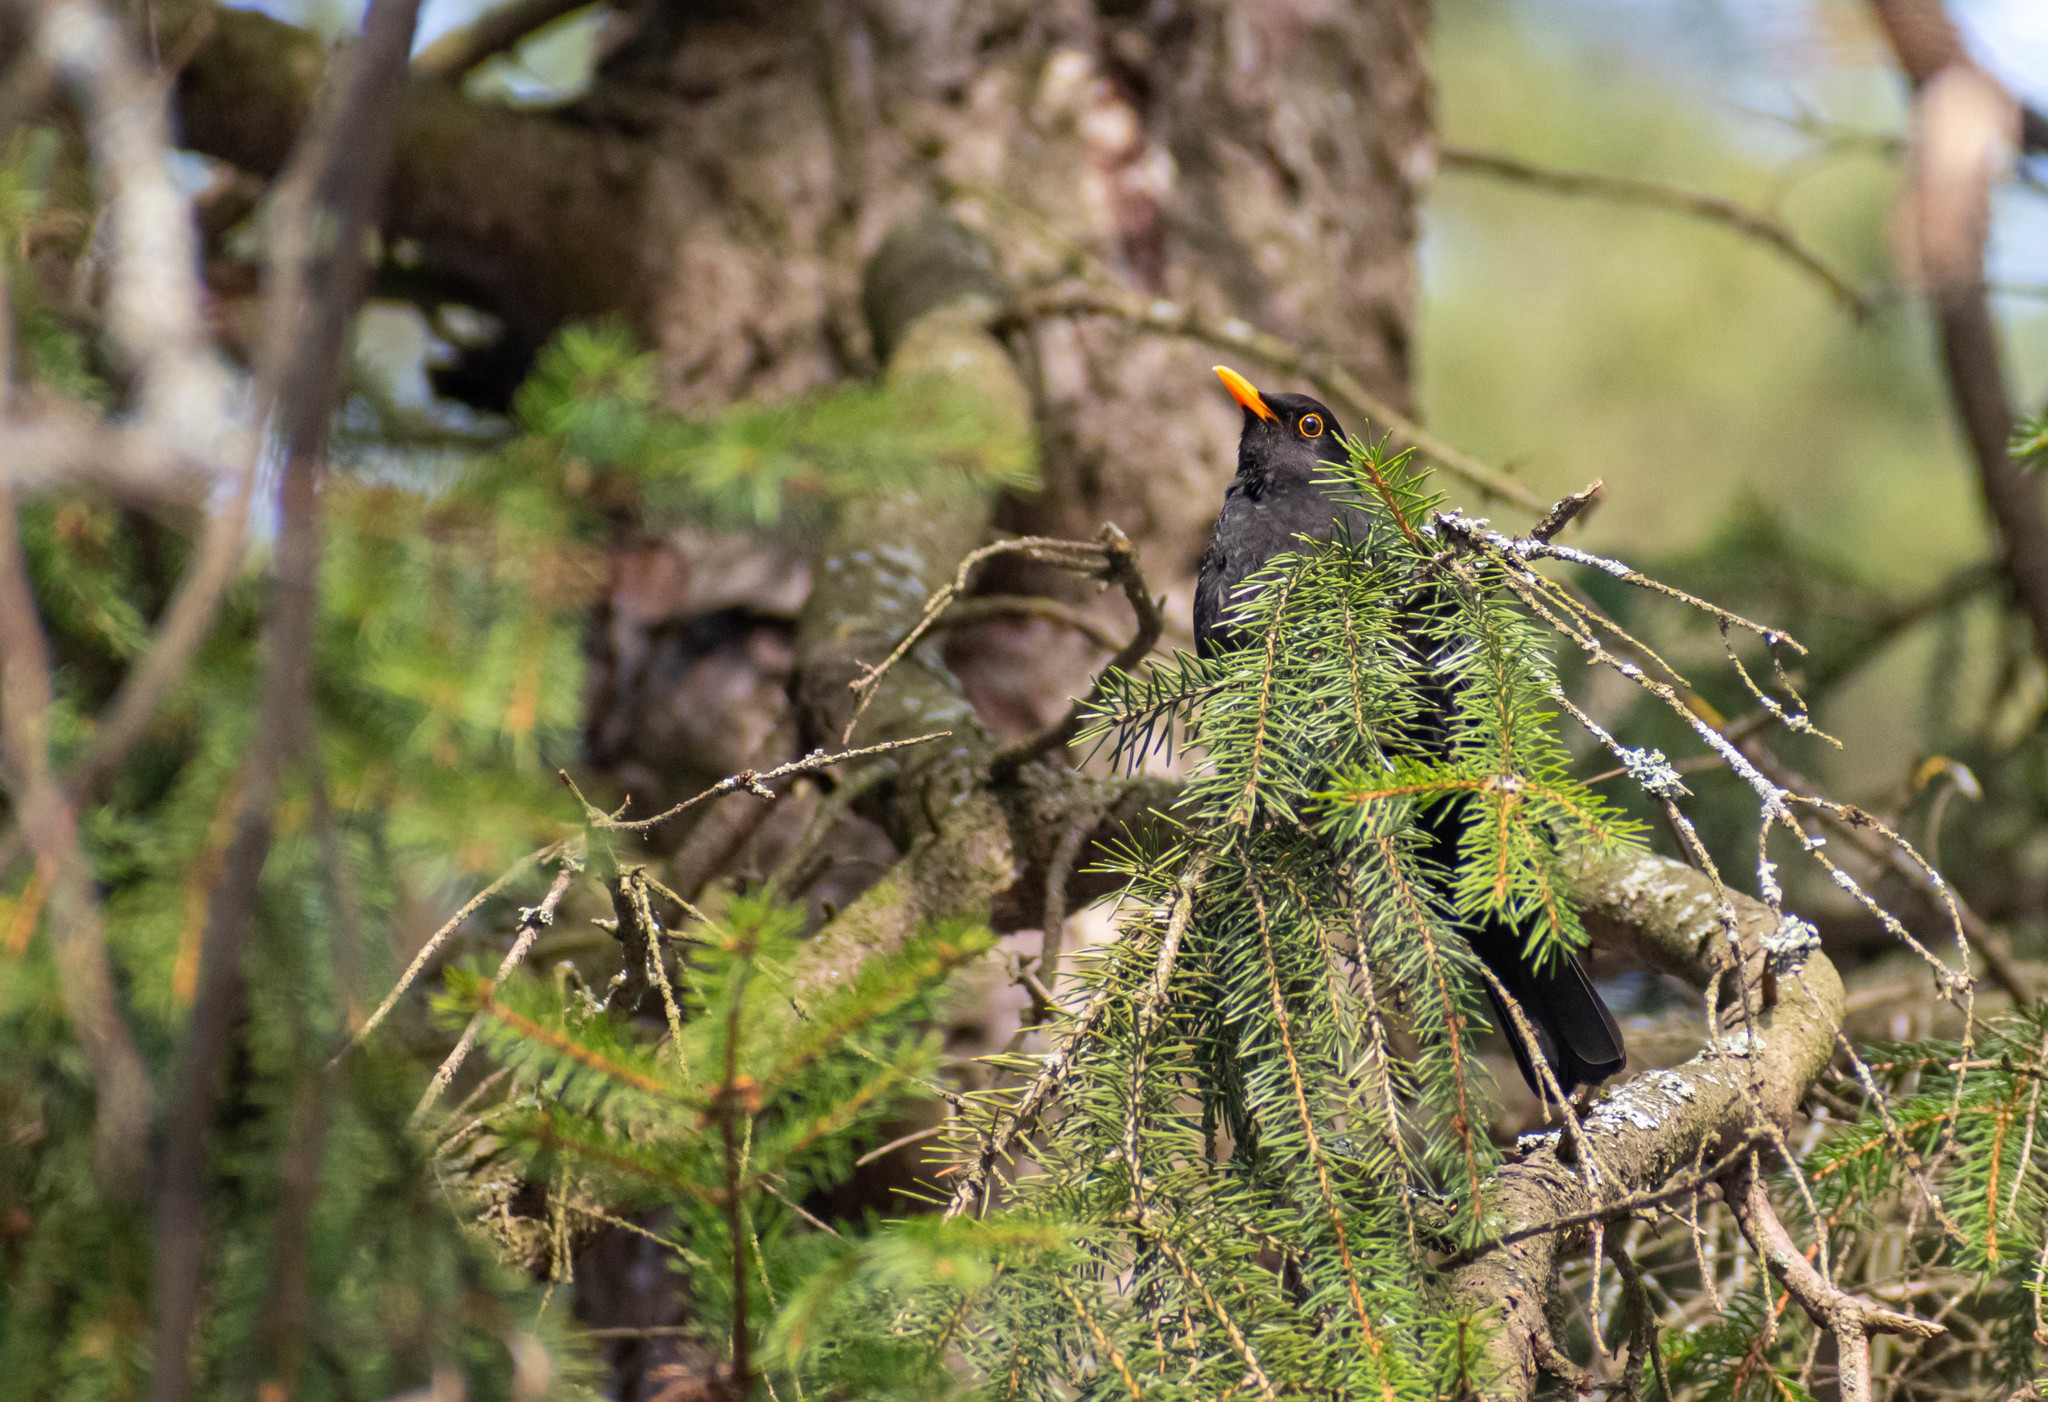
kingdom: Animalia
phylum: Chordata
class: Aves
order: Passeriformes
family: Turdidae
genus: Turdus
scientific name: Turdus merula
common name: Common blackbird
